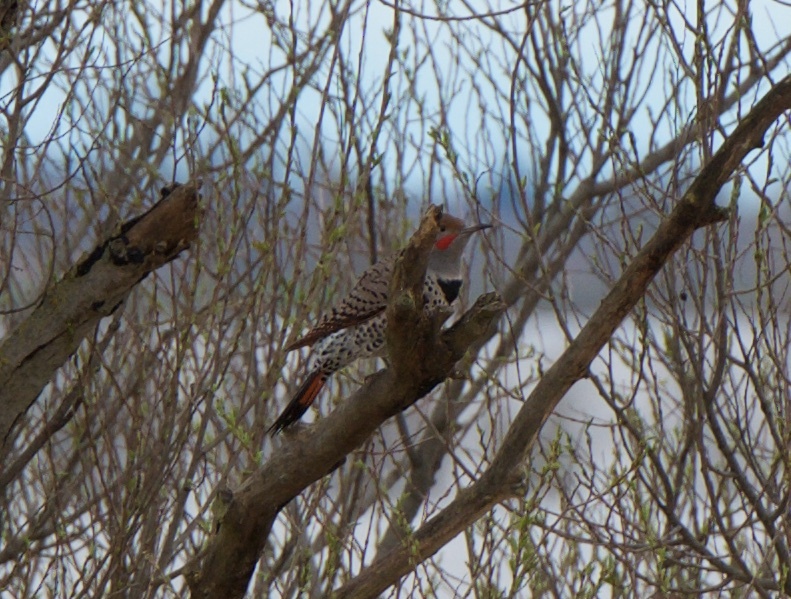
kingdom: Animalia
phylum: Chordata
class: Aves
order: Piciformes
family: Picidae
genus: Colaptes
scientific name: Colaptes auratus
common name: Northern flicker
